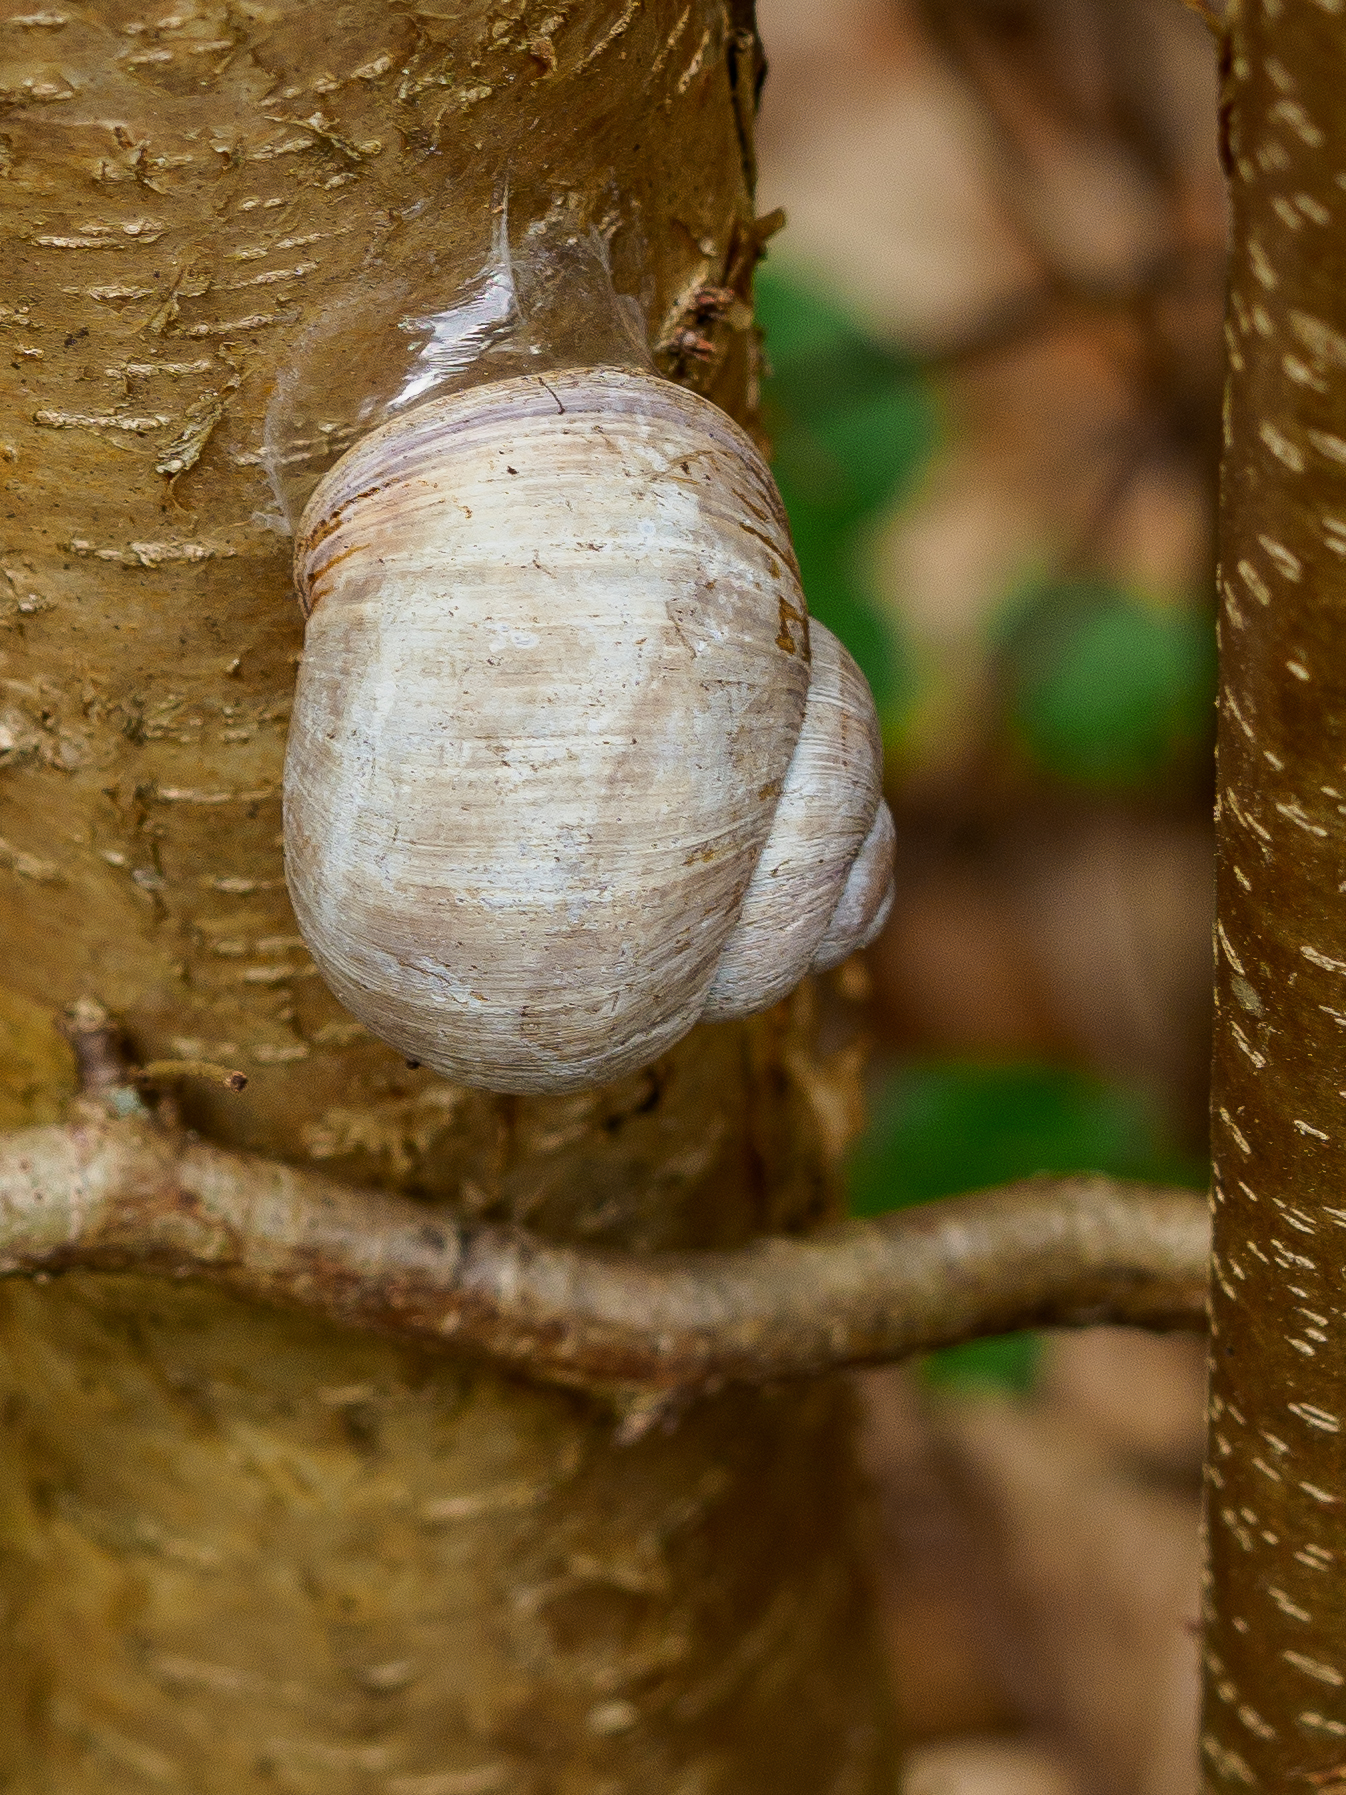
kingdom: Animalia
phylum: Mollusca
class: Gastropoda
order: Stylommatophora
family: Helicidae
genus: Helix
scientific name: Helix pomatia
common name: Roman snail
